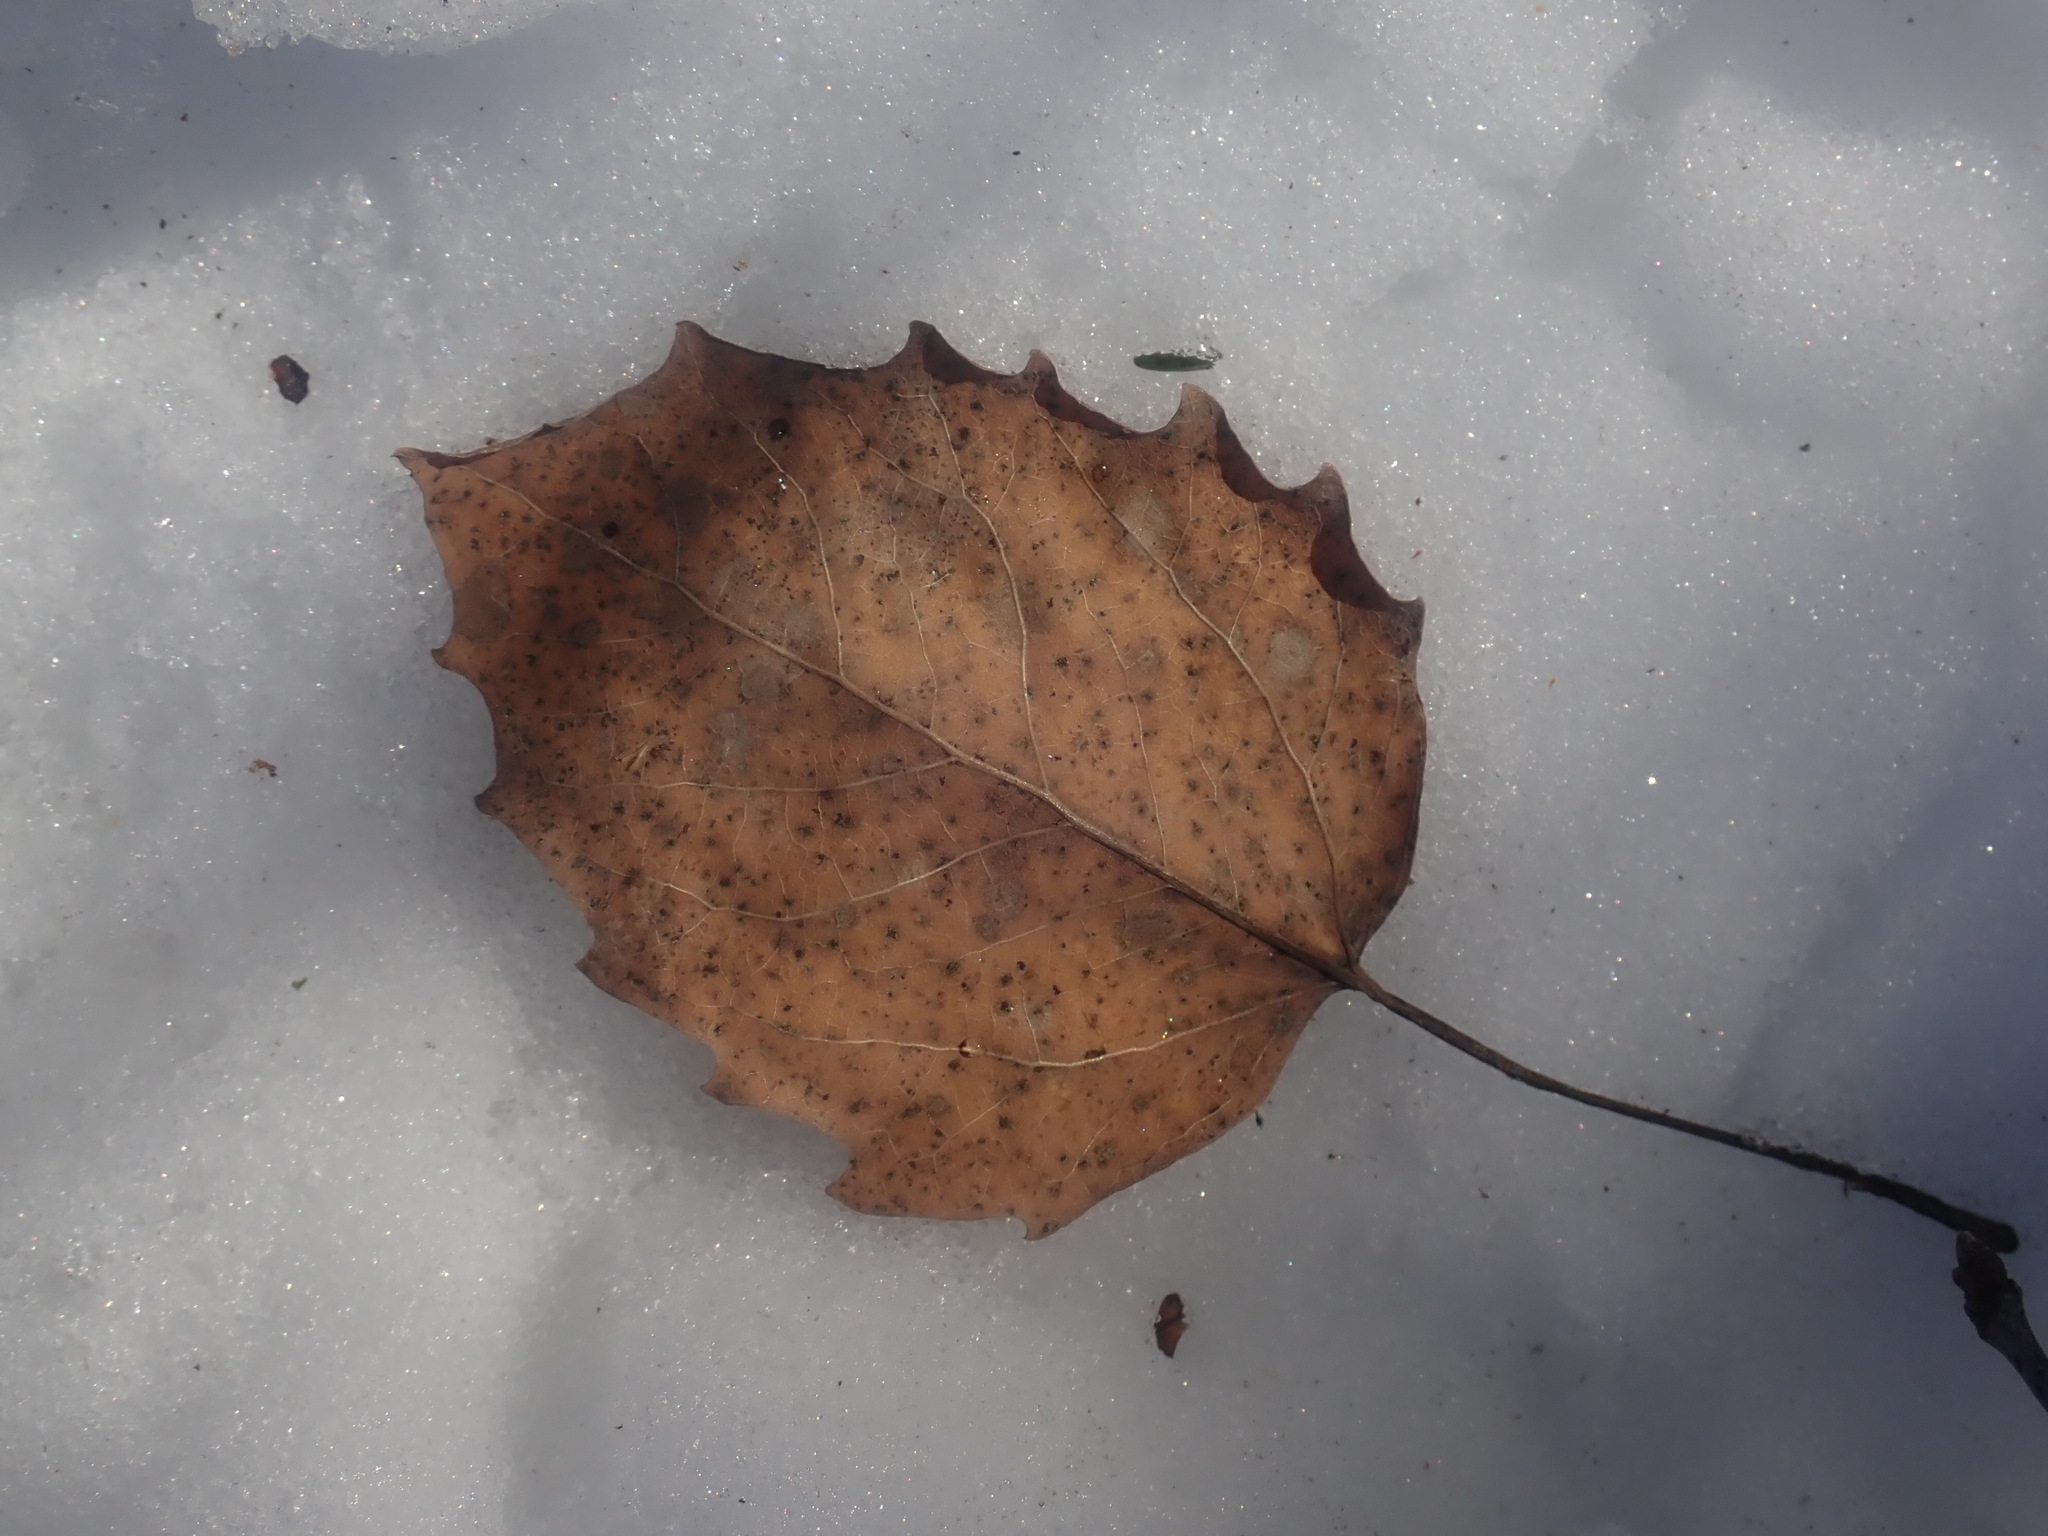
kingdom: Plantae
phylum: Tracheophyta
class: Magnoliopsida
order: Malpighiales
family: Salicaceae
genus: Populus
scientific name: Populus grandidentata
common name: Bigtooth aspen
